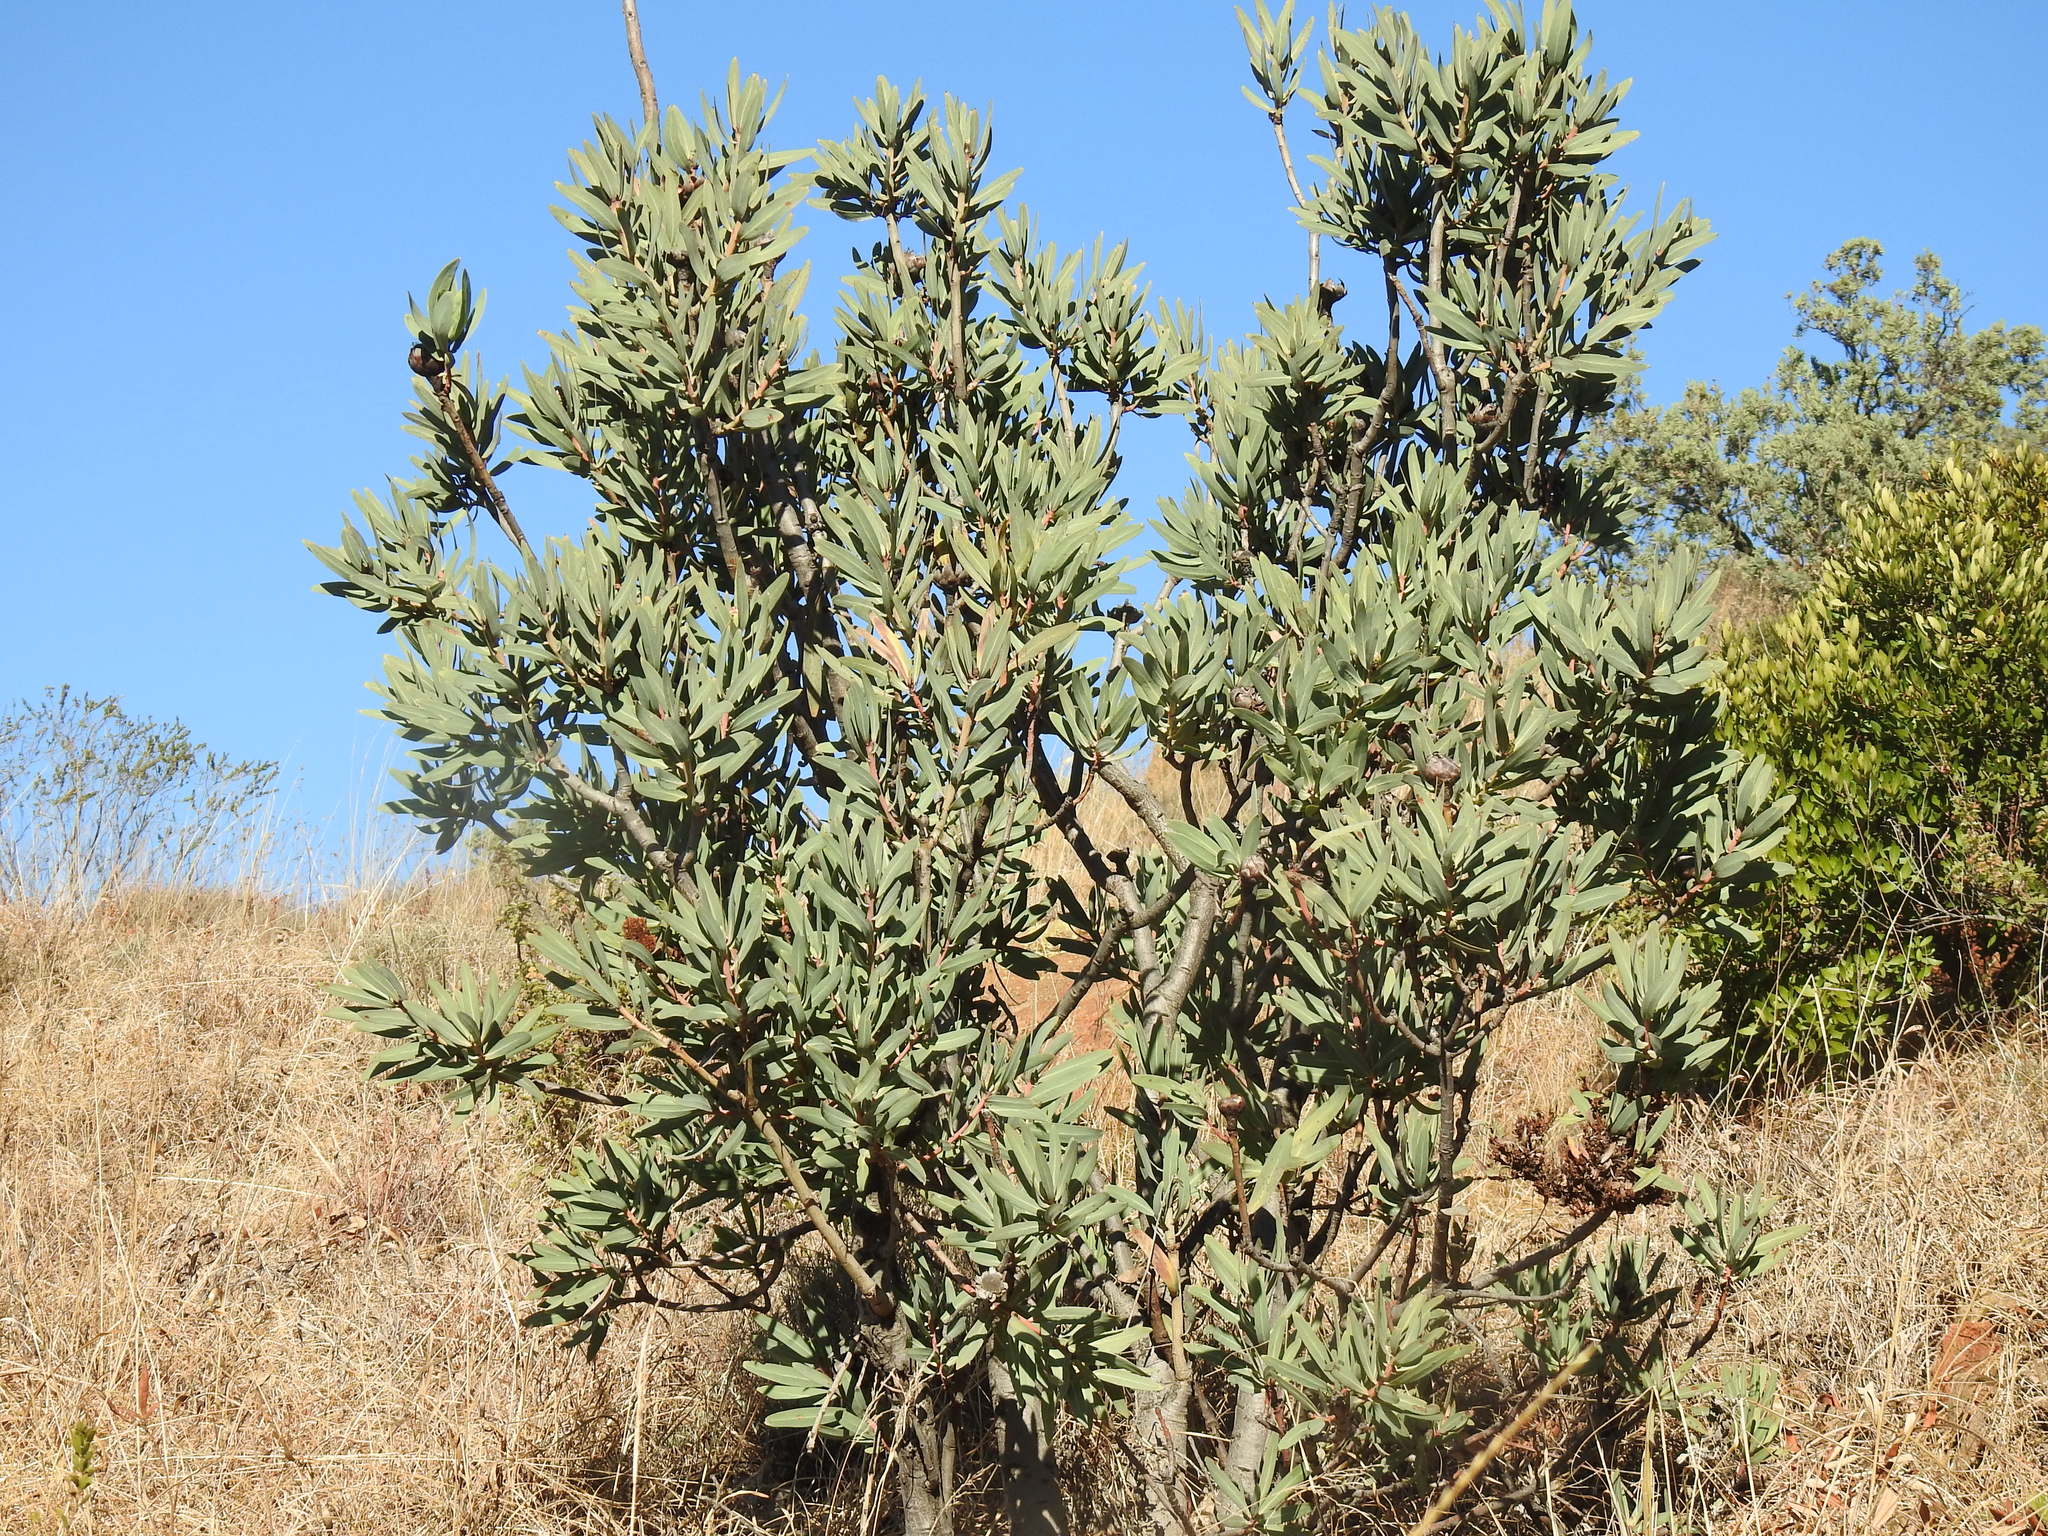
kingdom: Plantae
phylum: Tracheophyta
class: Magnoliopsida
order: Proteales
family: Proteaceae
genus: Protea
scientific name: Protea caffra
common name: Common sugarbush
